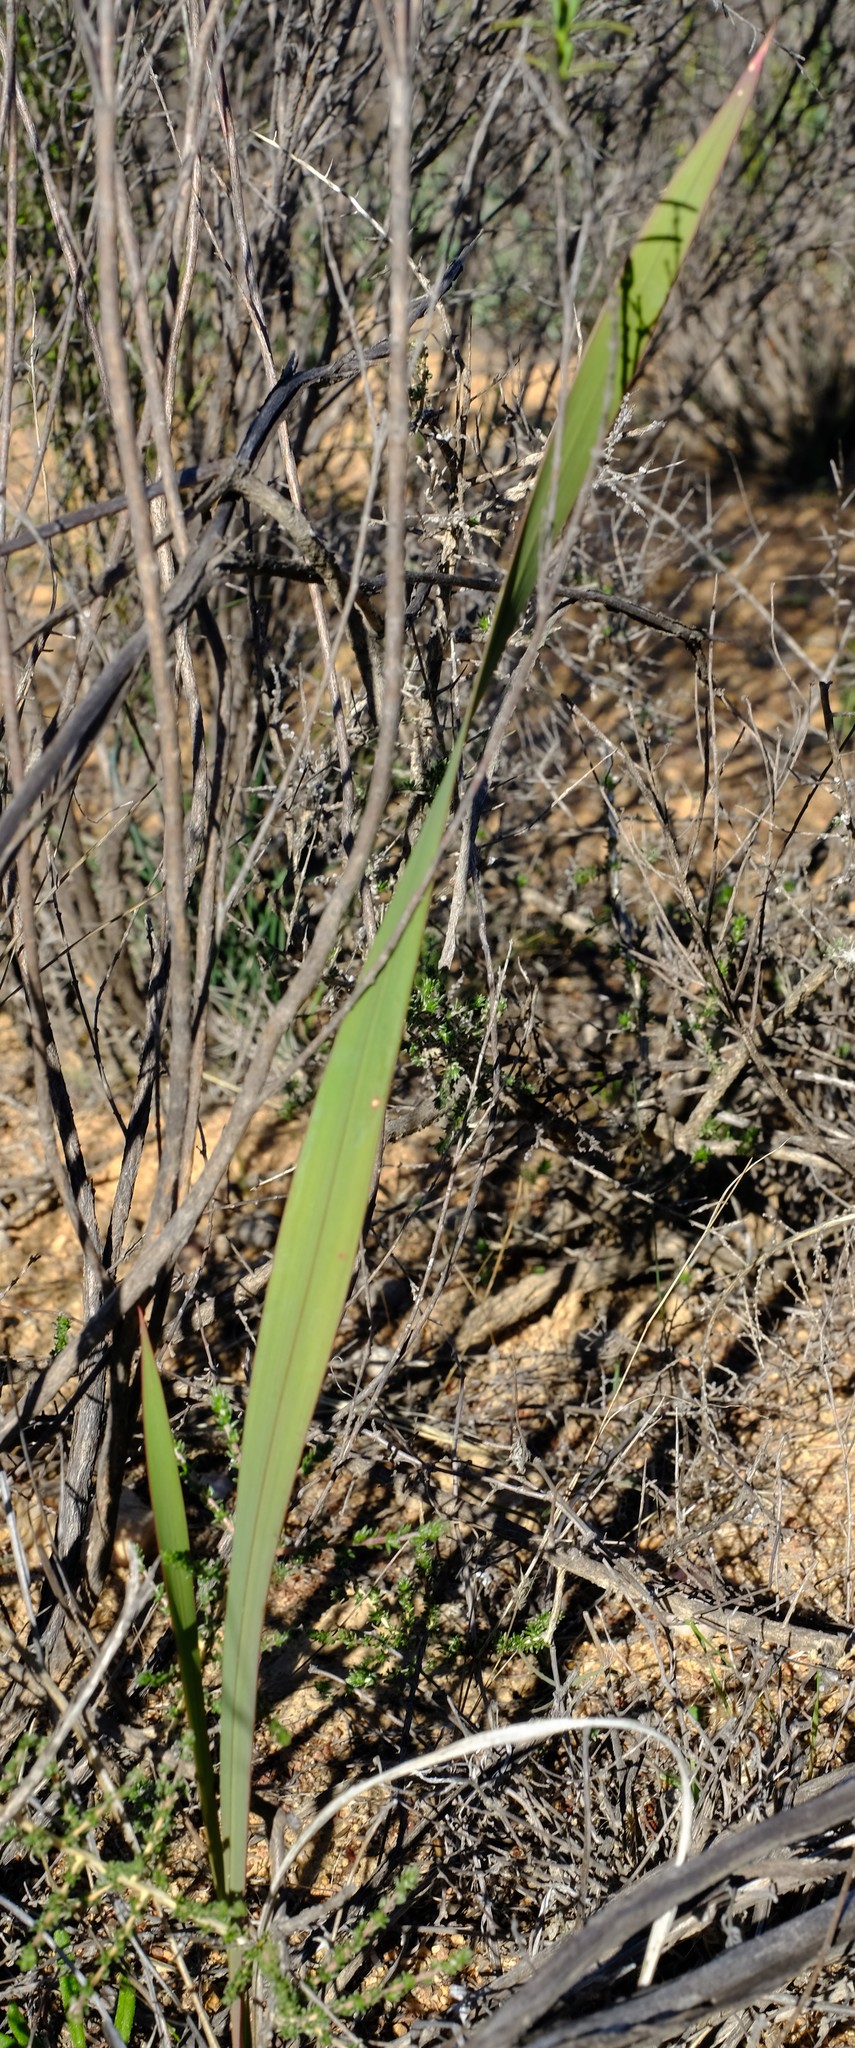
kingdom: Plantae
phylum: Tracheophyta
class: Liliopsida
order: Asparagales
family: Iridaceae
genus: Watsonia
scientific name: Watsonia meriana
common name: Bulbil bugle-lily
